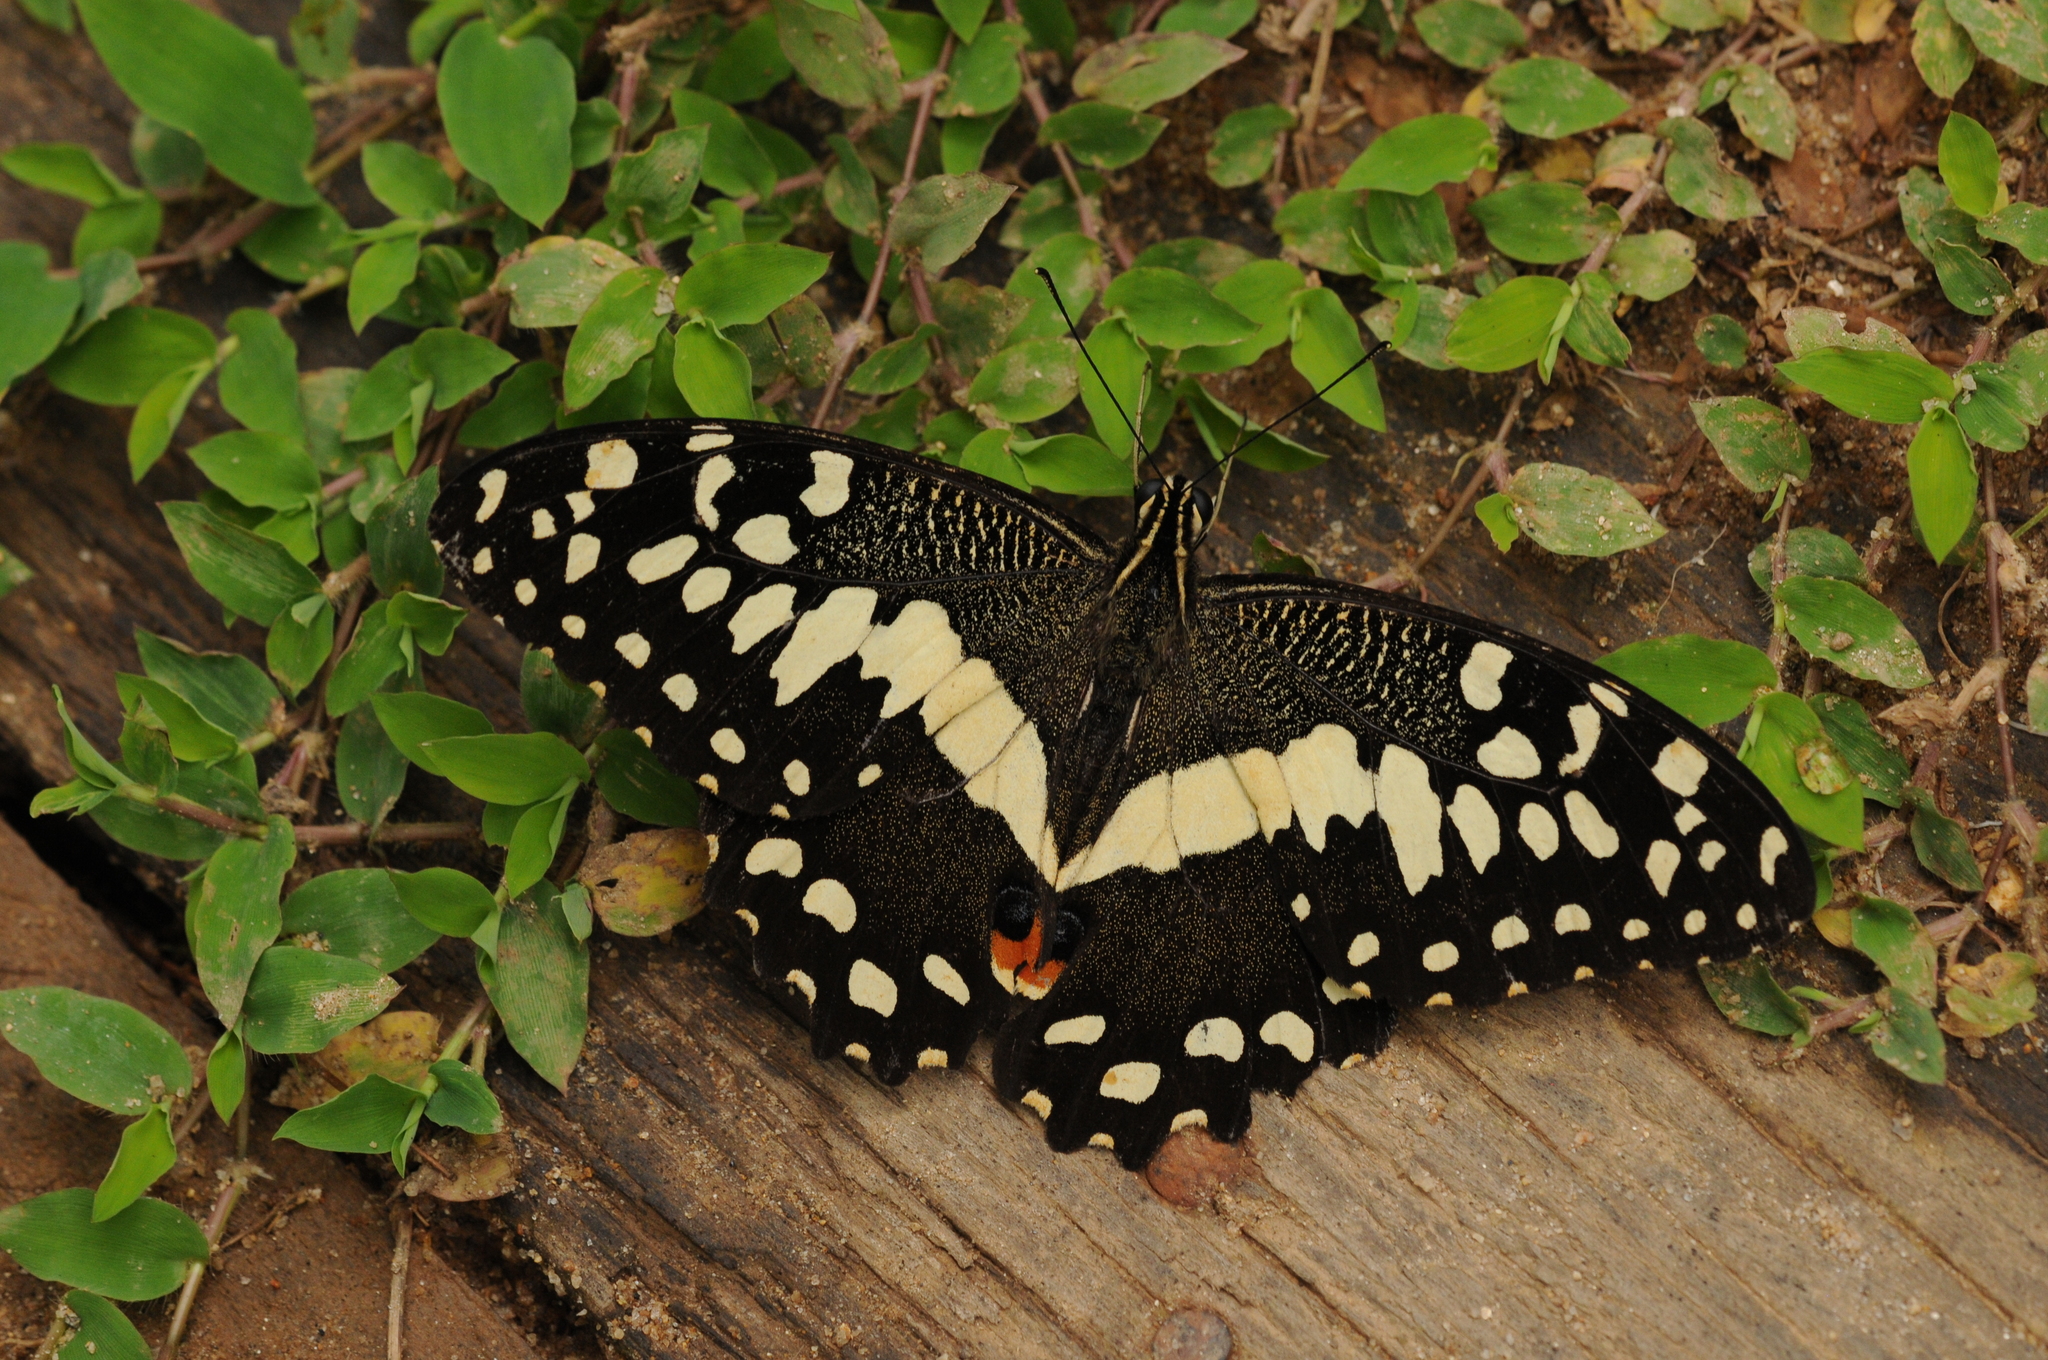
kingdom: Animalia
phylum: Arthropoda
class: Insecta
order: Lepidoptera
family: Papilionidae
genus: Papilio
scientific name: Papilio demodocus
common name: Christmas butterfly
